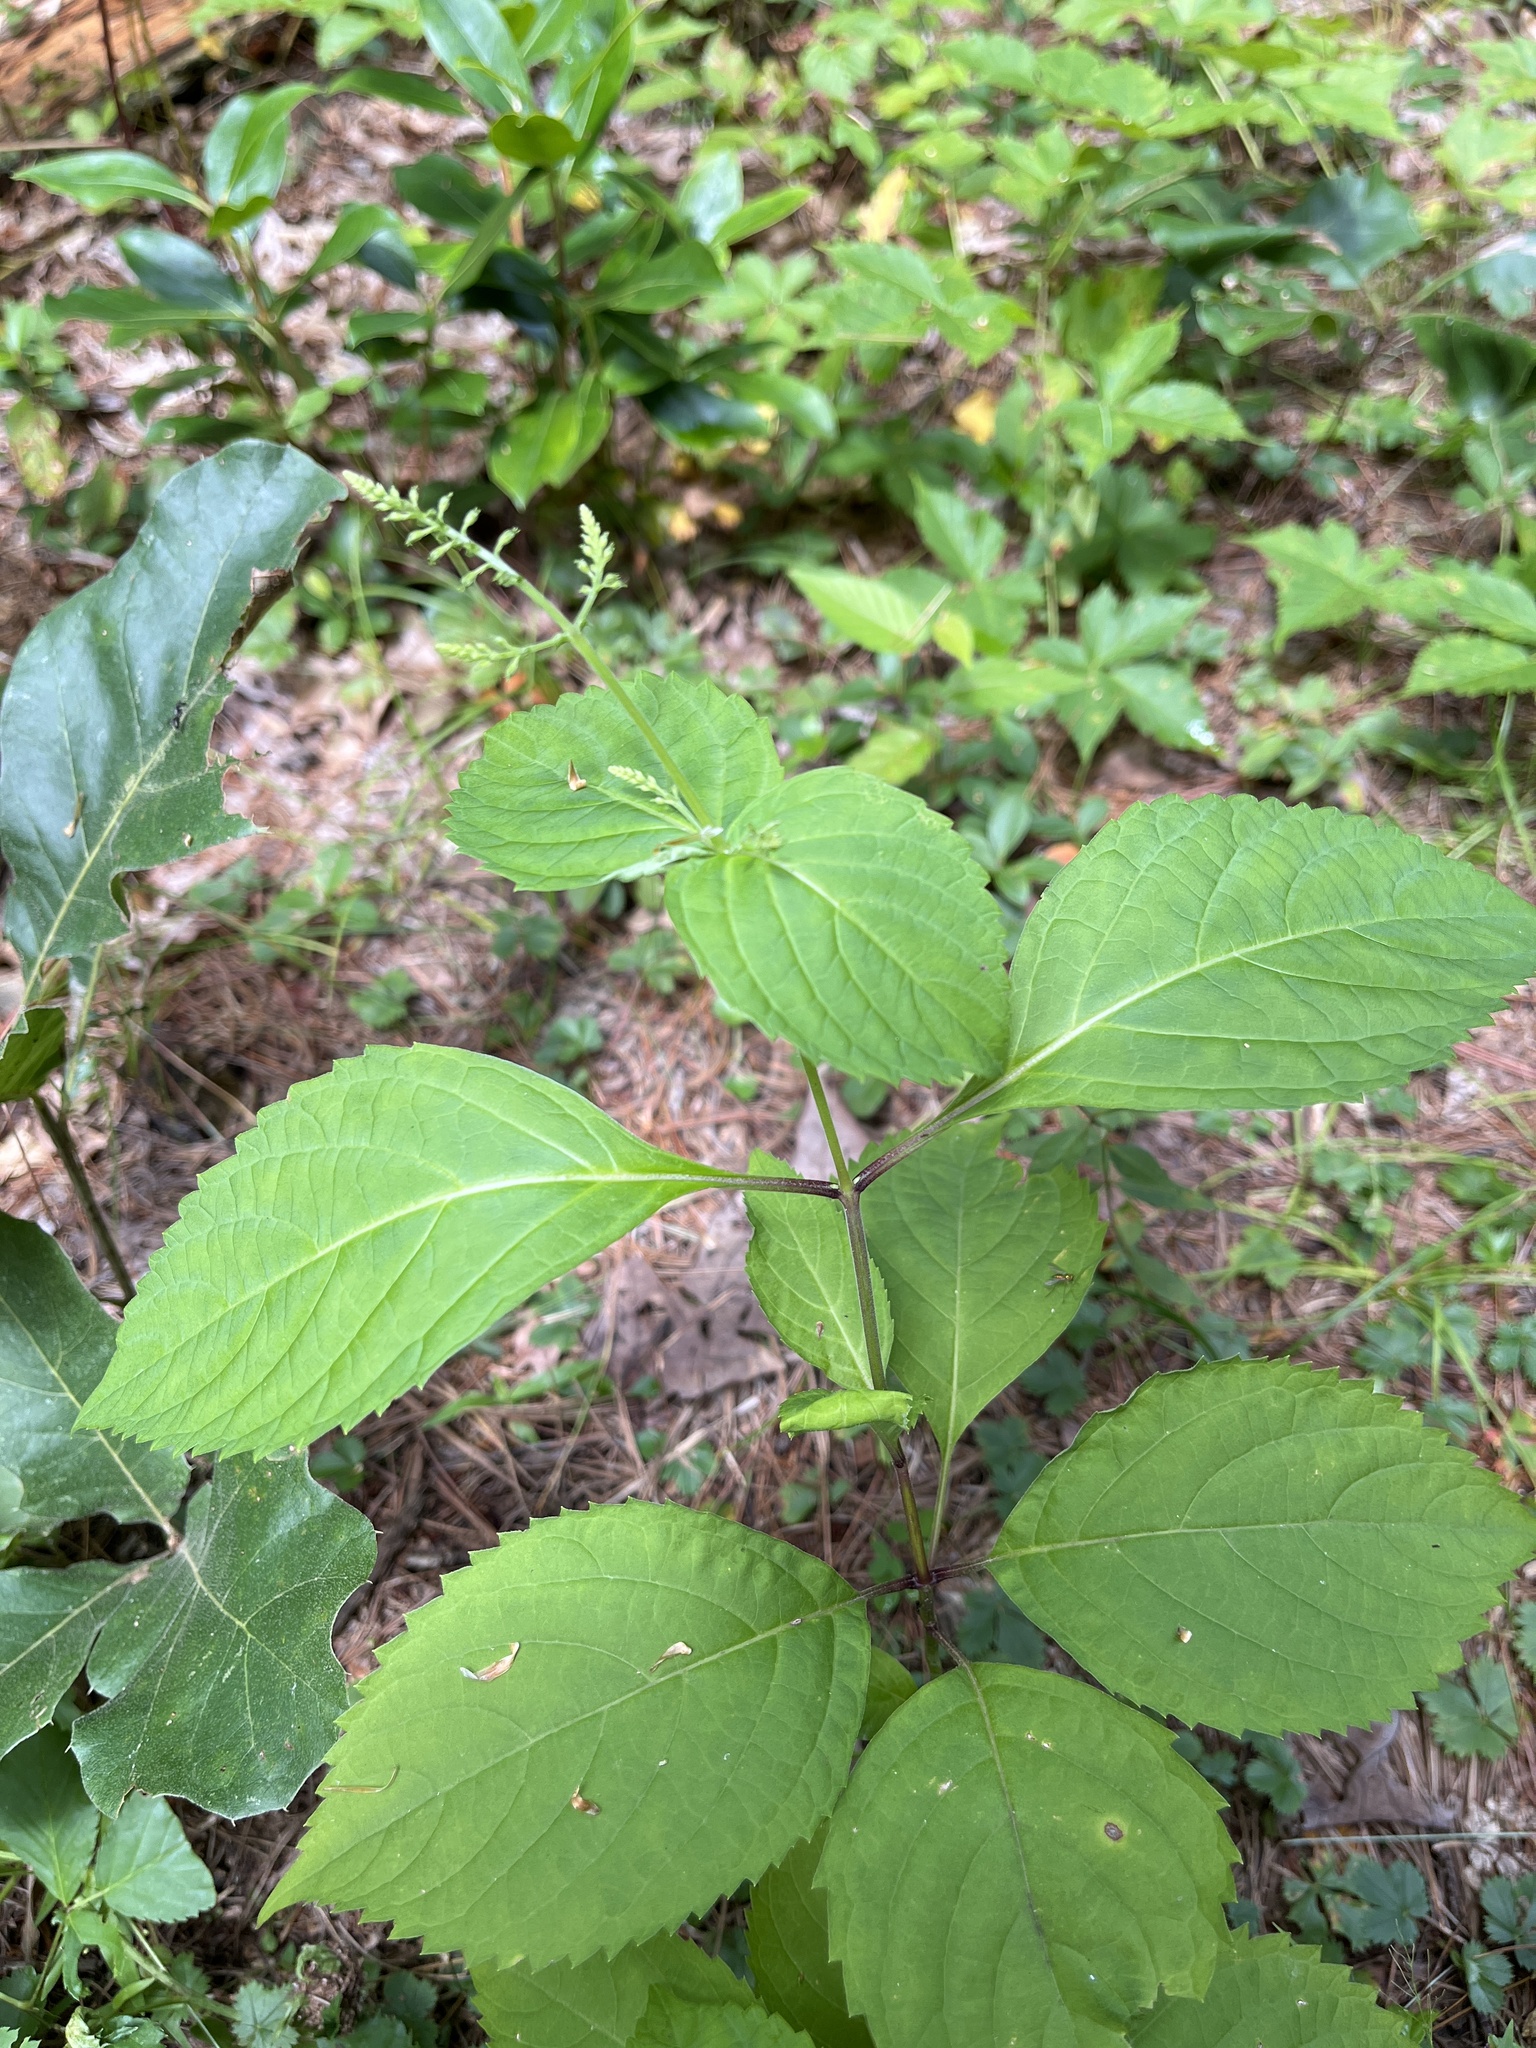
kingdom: Plantae
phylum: Tracheophyta
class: Magnoliopsida
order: Lamiales
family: Lamiaceae
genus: Collinsonia
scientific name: Collinsonia canadensis
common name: Northern horsebalm
